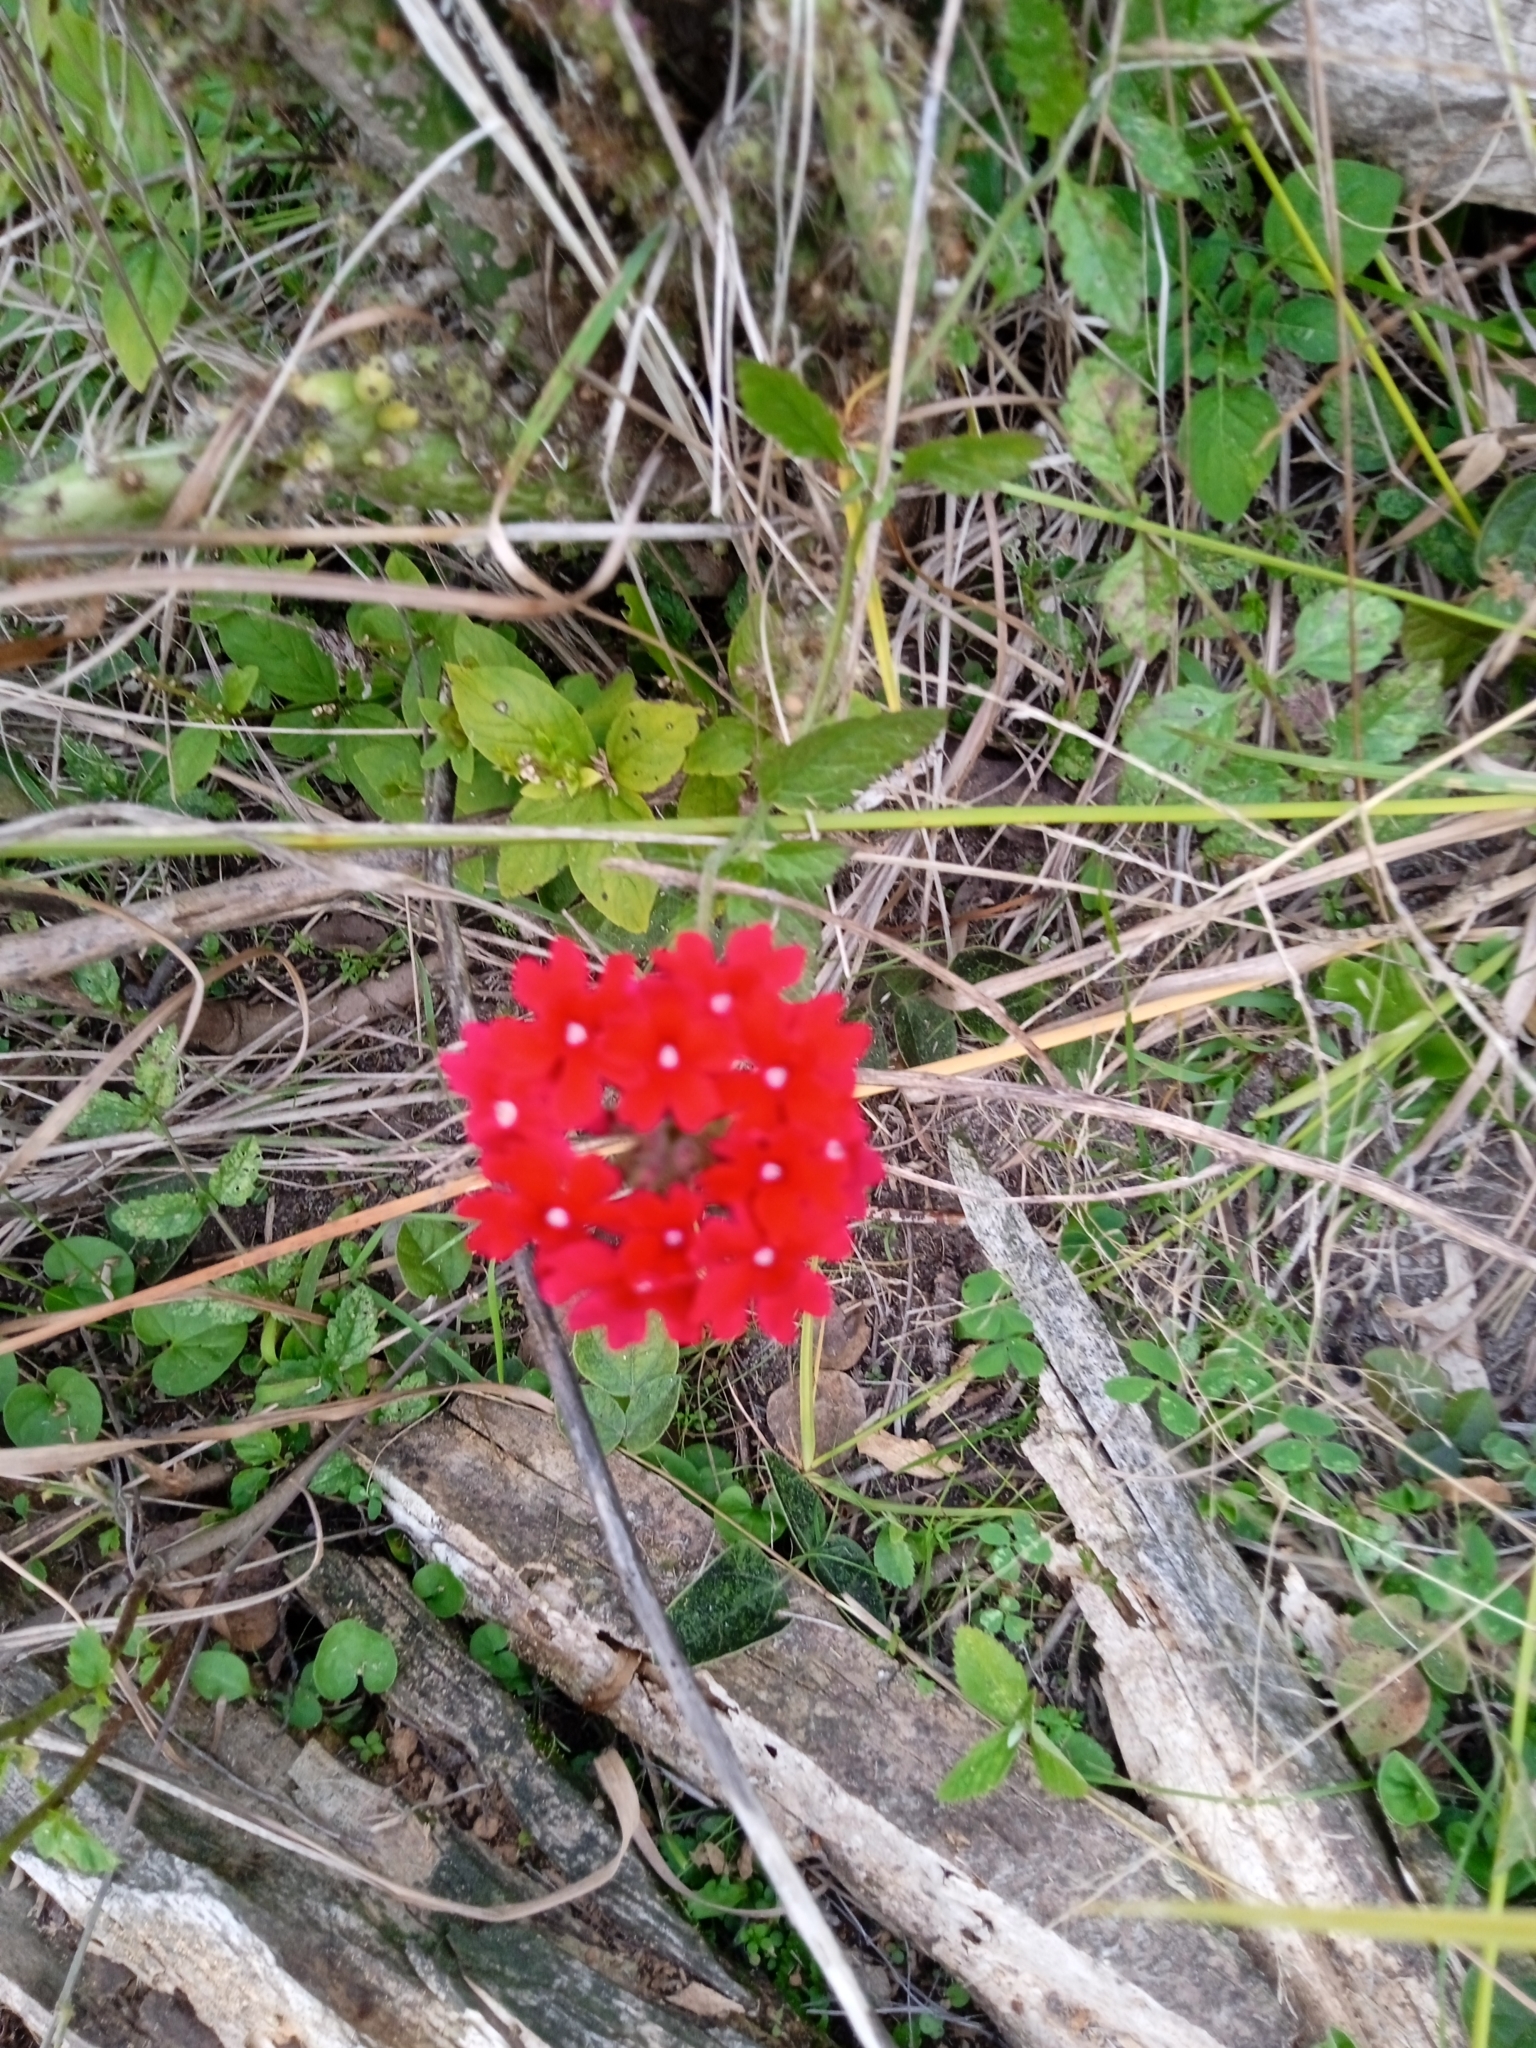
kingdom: Plantae
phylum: Tracheophyta
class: Magnoliopsida
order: Lamiales
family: Verbenaceae
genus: Verbena
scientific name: Verbena peruviana
